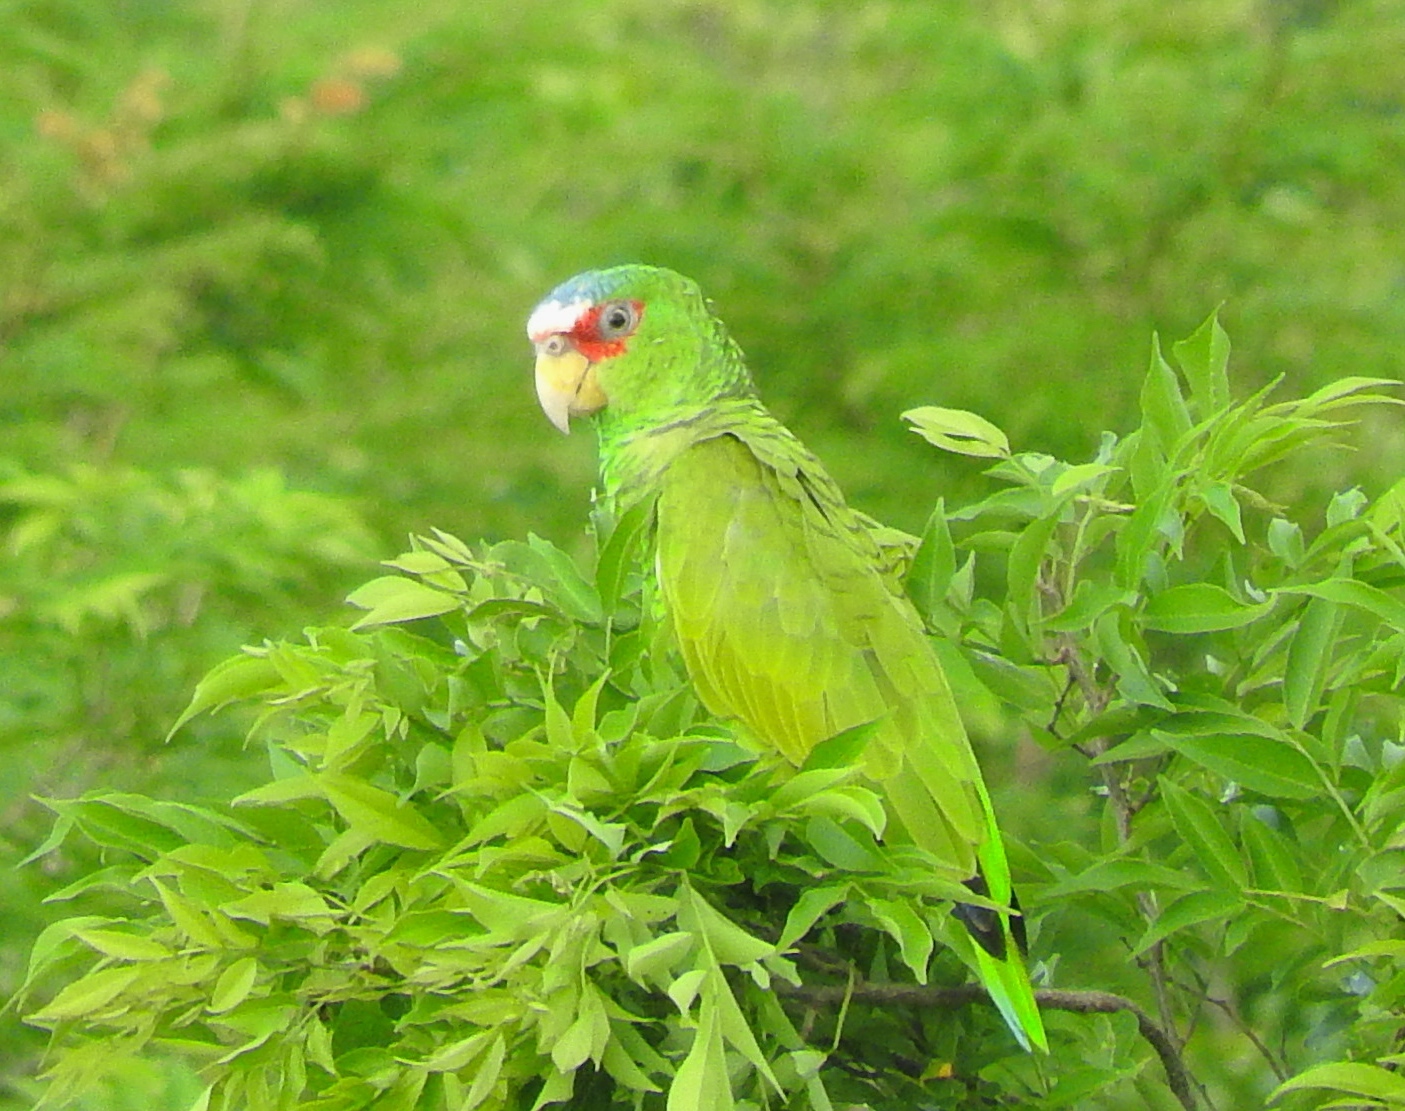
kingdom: Animalia
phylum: Chordata
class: Aves
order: Psittaciformes
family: Psittacidae
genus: Amazona
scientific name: Amazona albifrons
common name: White-fronted amazon
